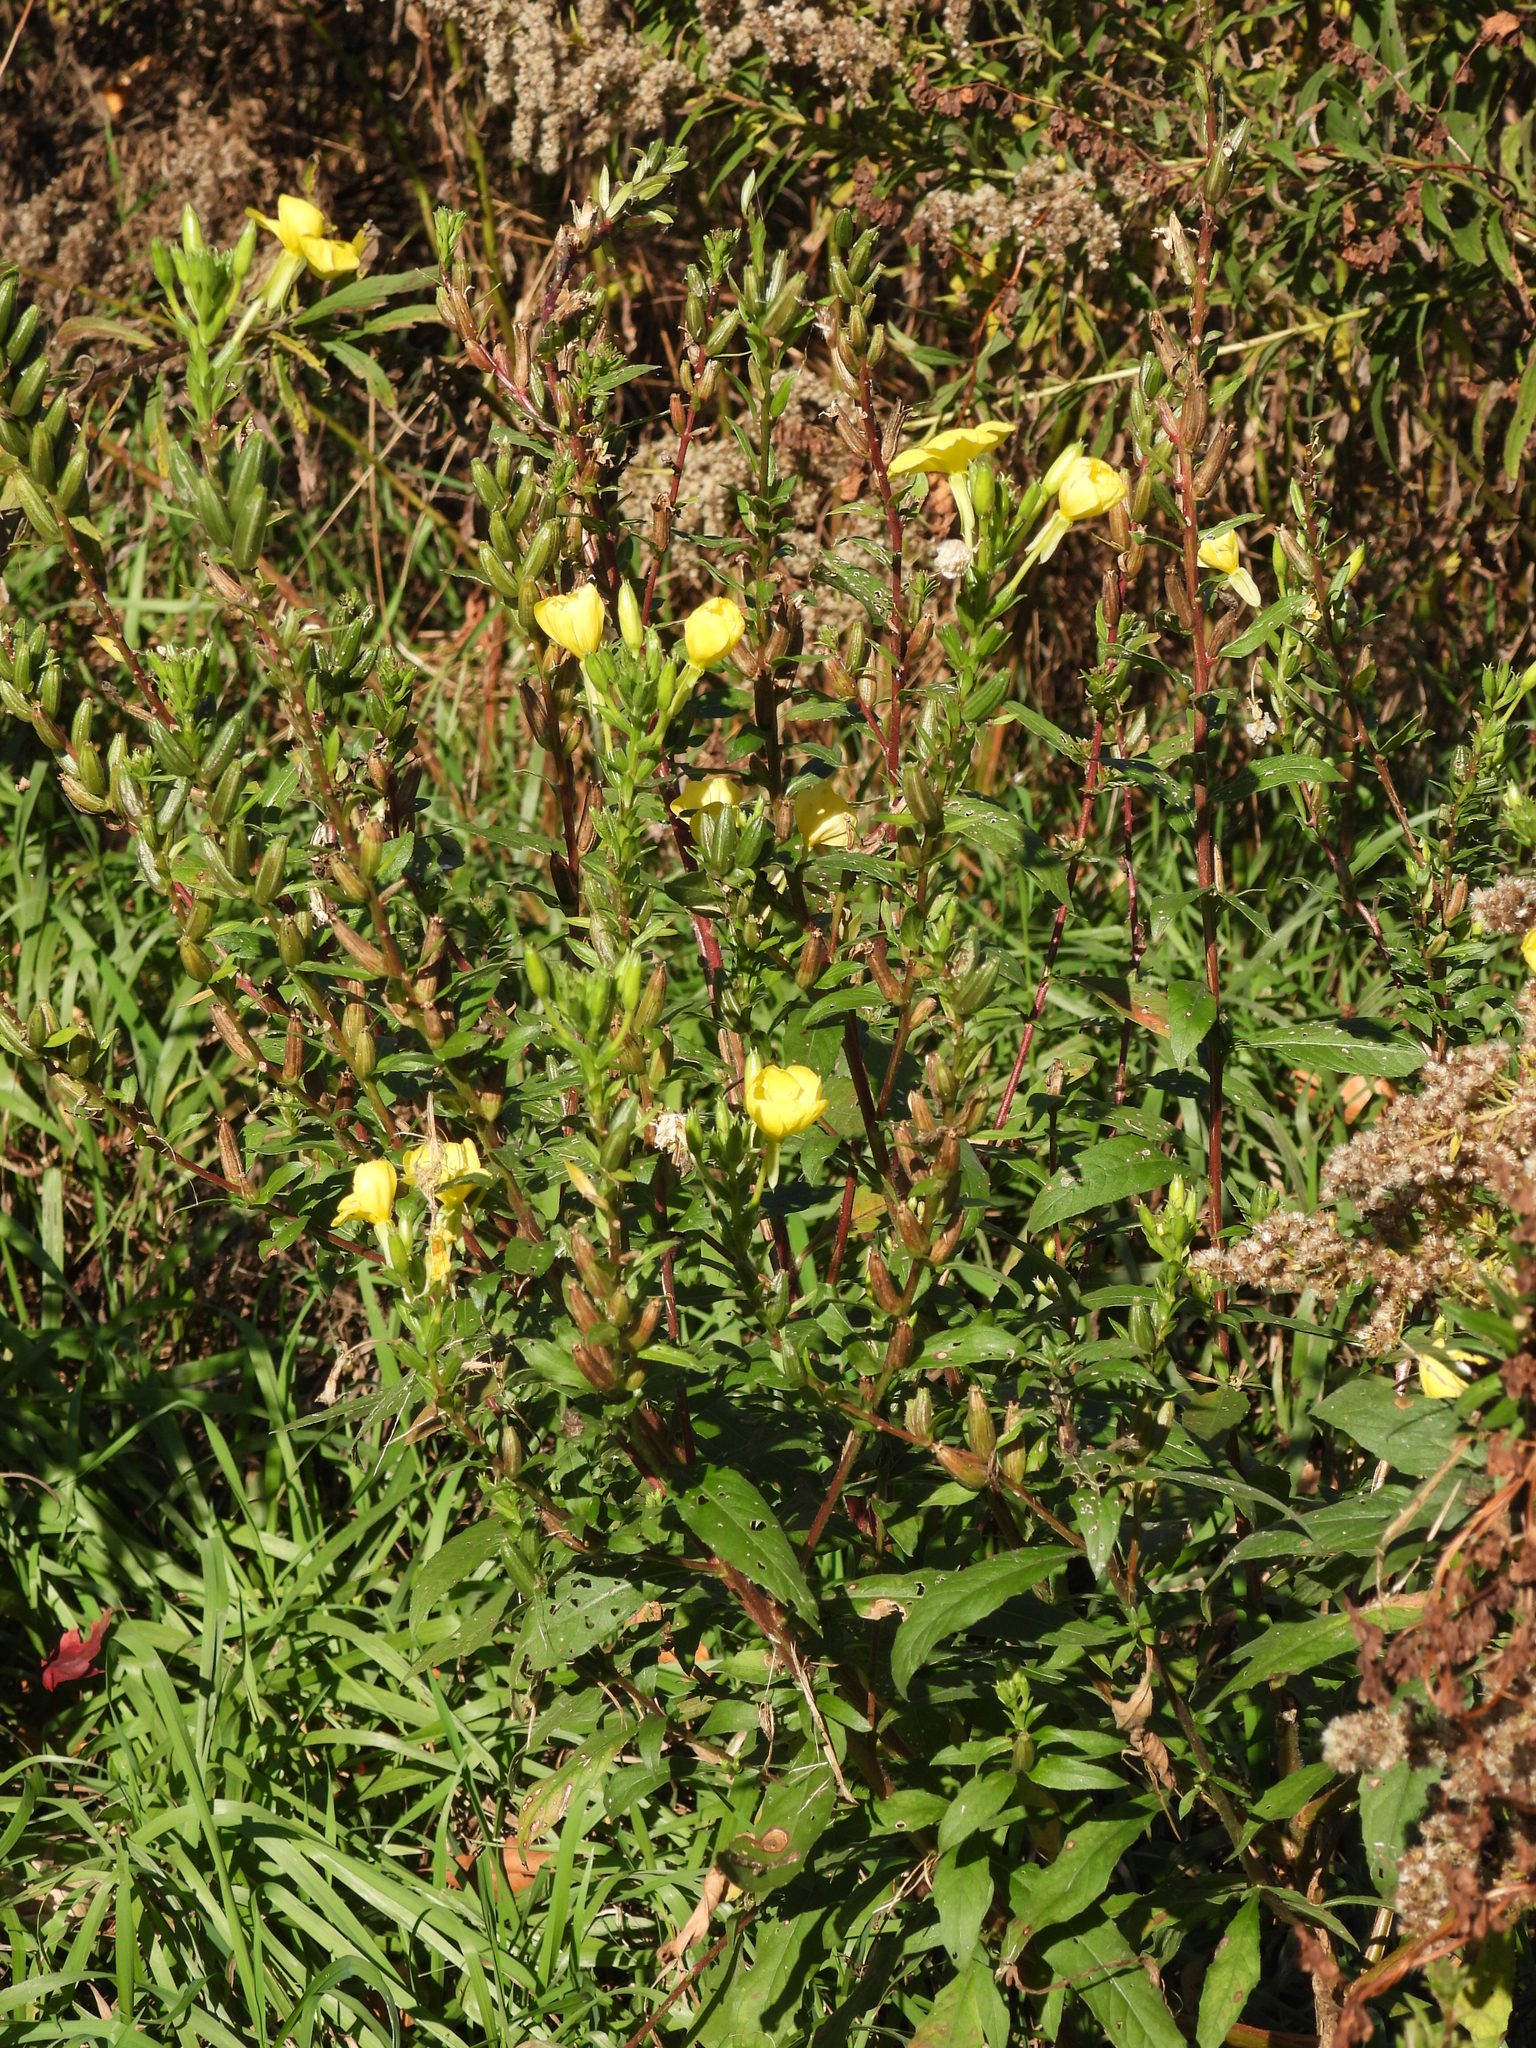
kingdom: Plantae
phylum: Tracheophyta
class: Magnoliopsida
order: Myrtales
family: Onagraceae
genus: Oenothera
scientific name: Oenothera biennis
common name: Common evening-primrose
